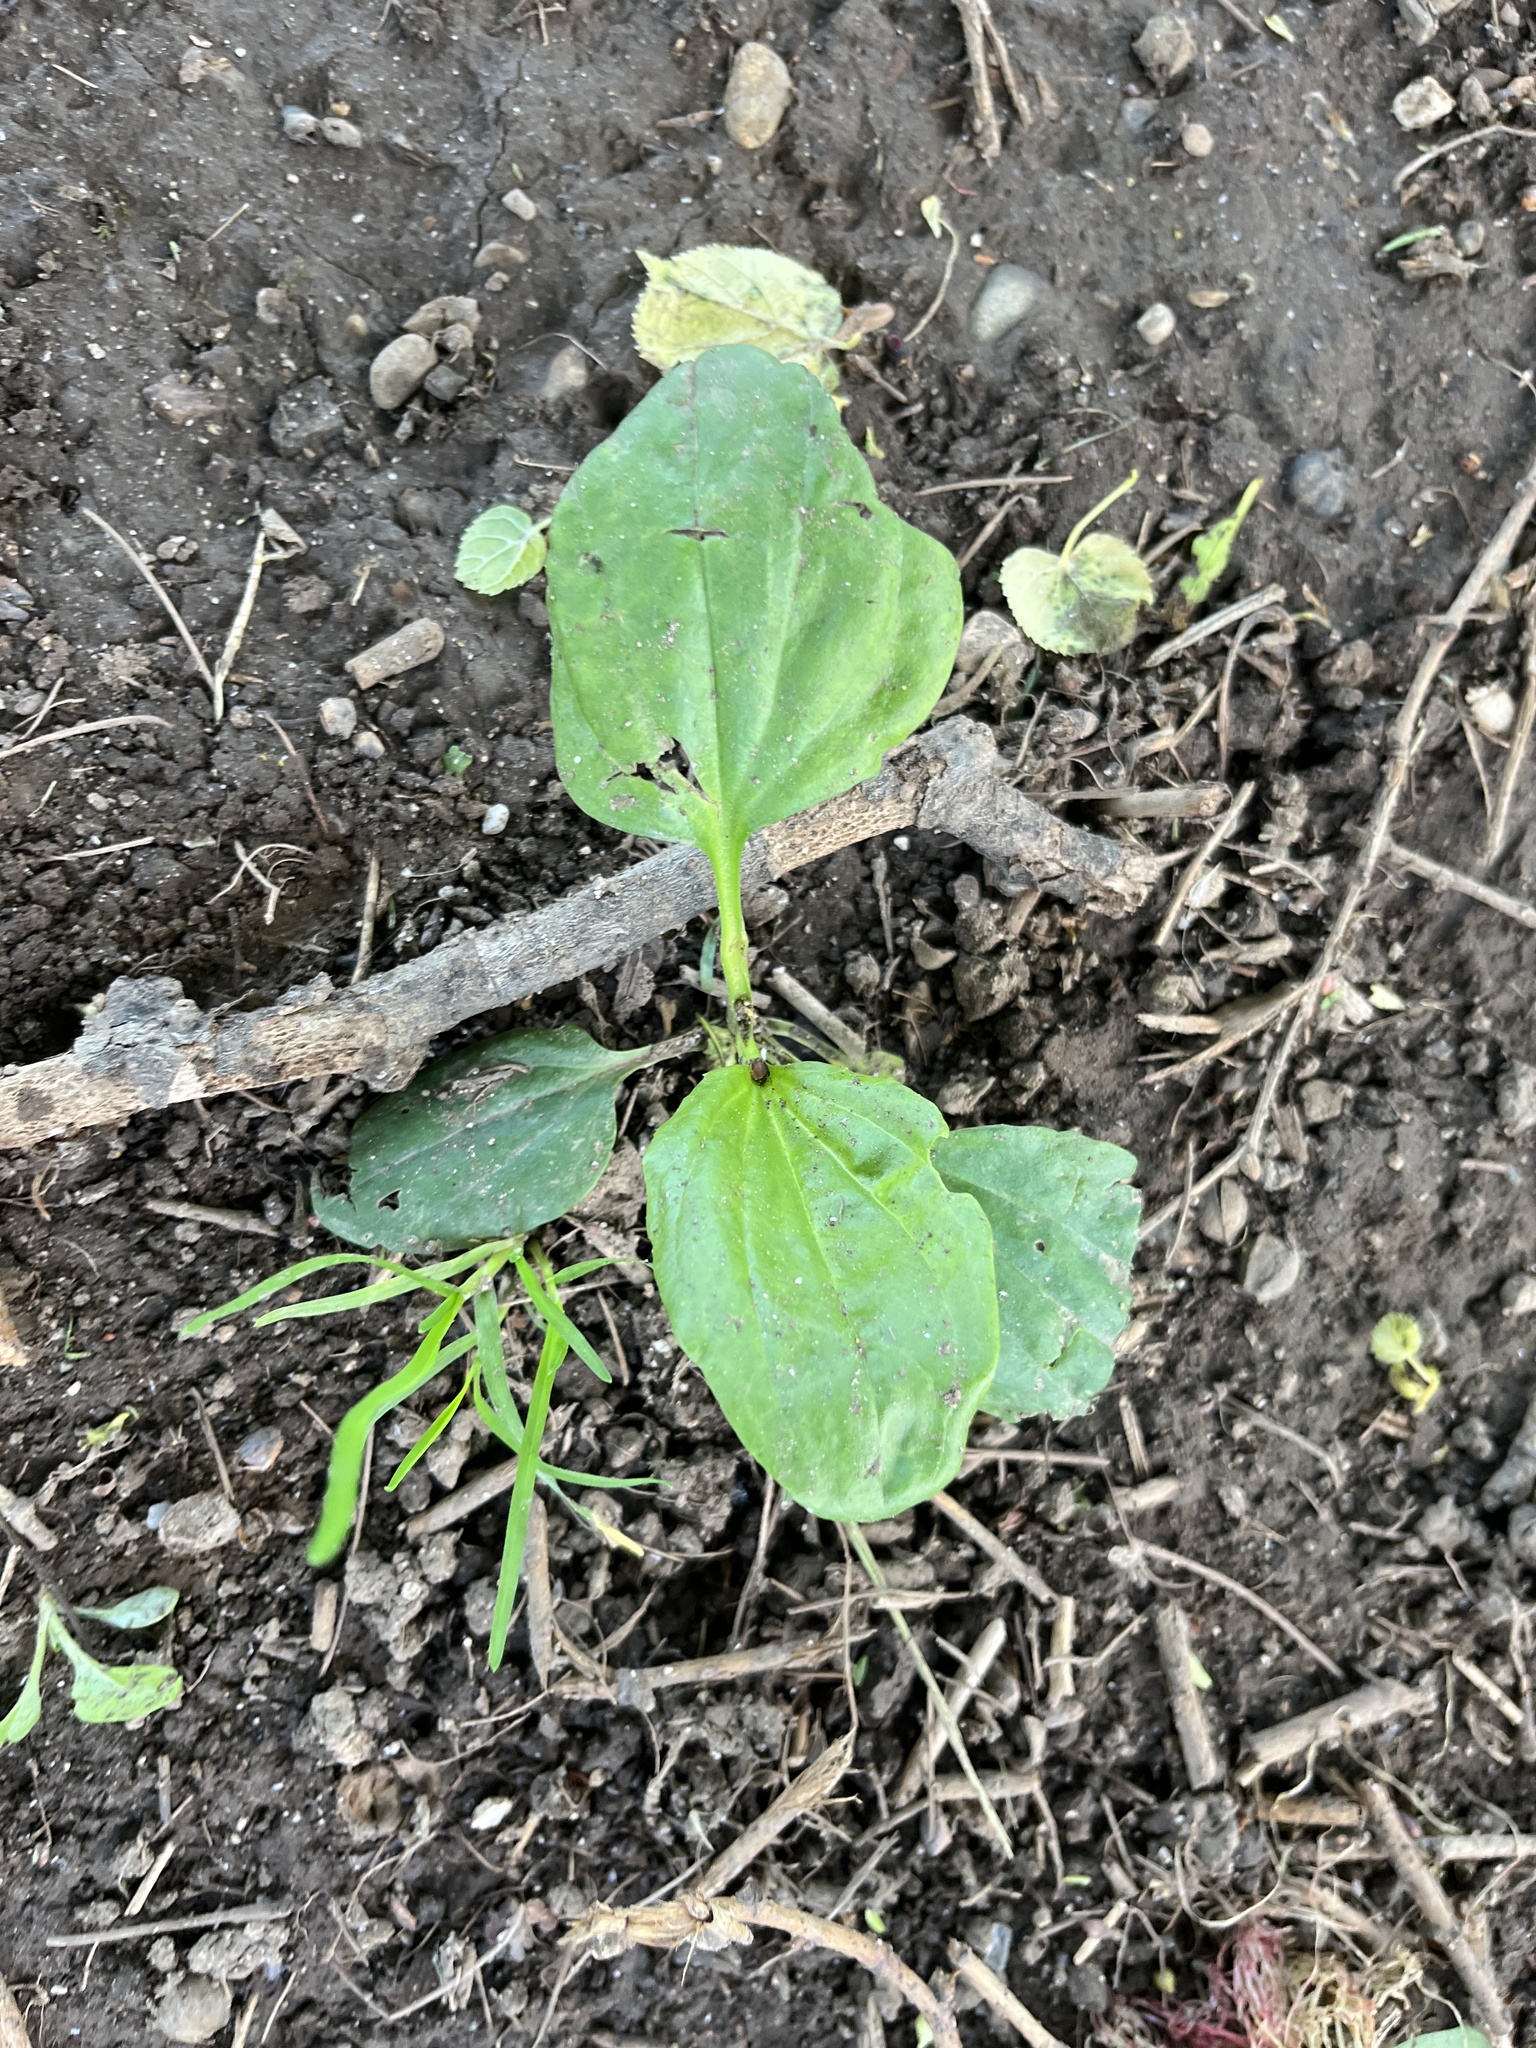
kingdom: Plantae
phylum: Tracheophyta
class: Magnoliopsida
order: Lamiales
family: Plantaginaceae
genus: Plantago
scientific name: Plantago major
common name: Common plantain
